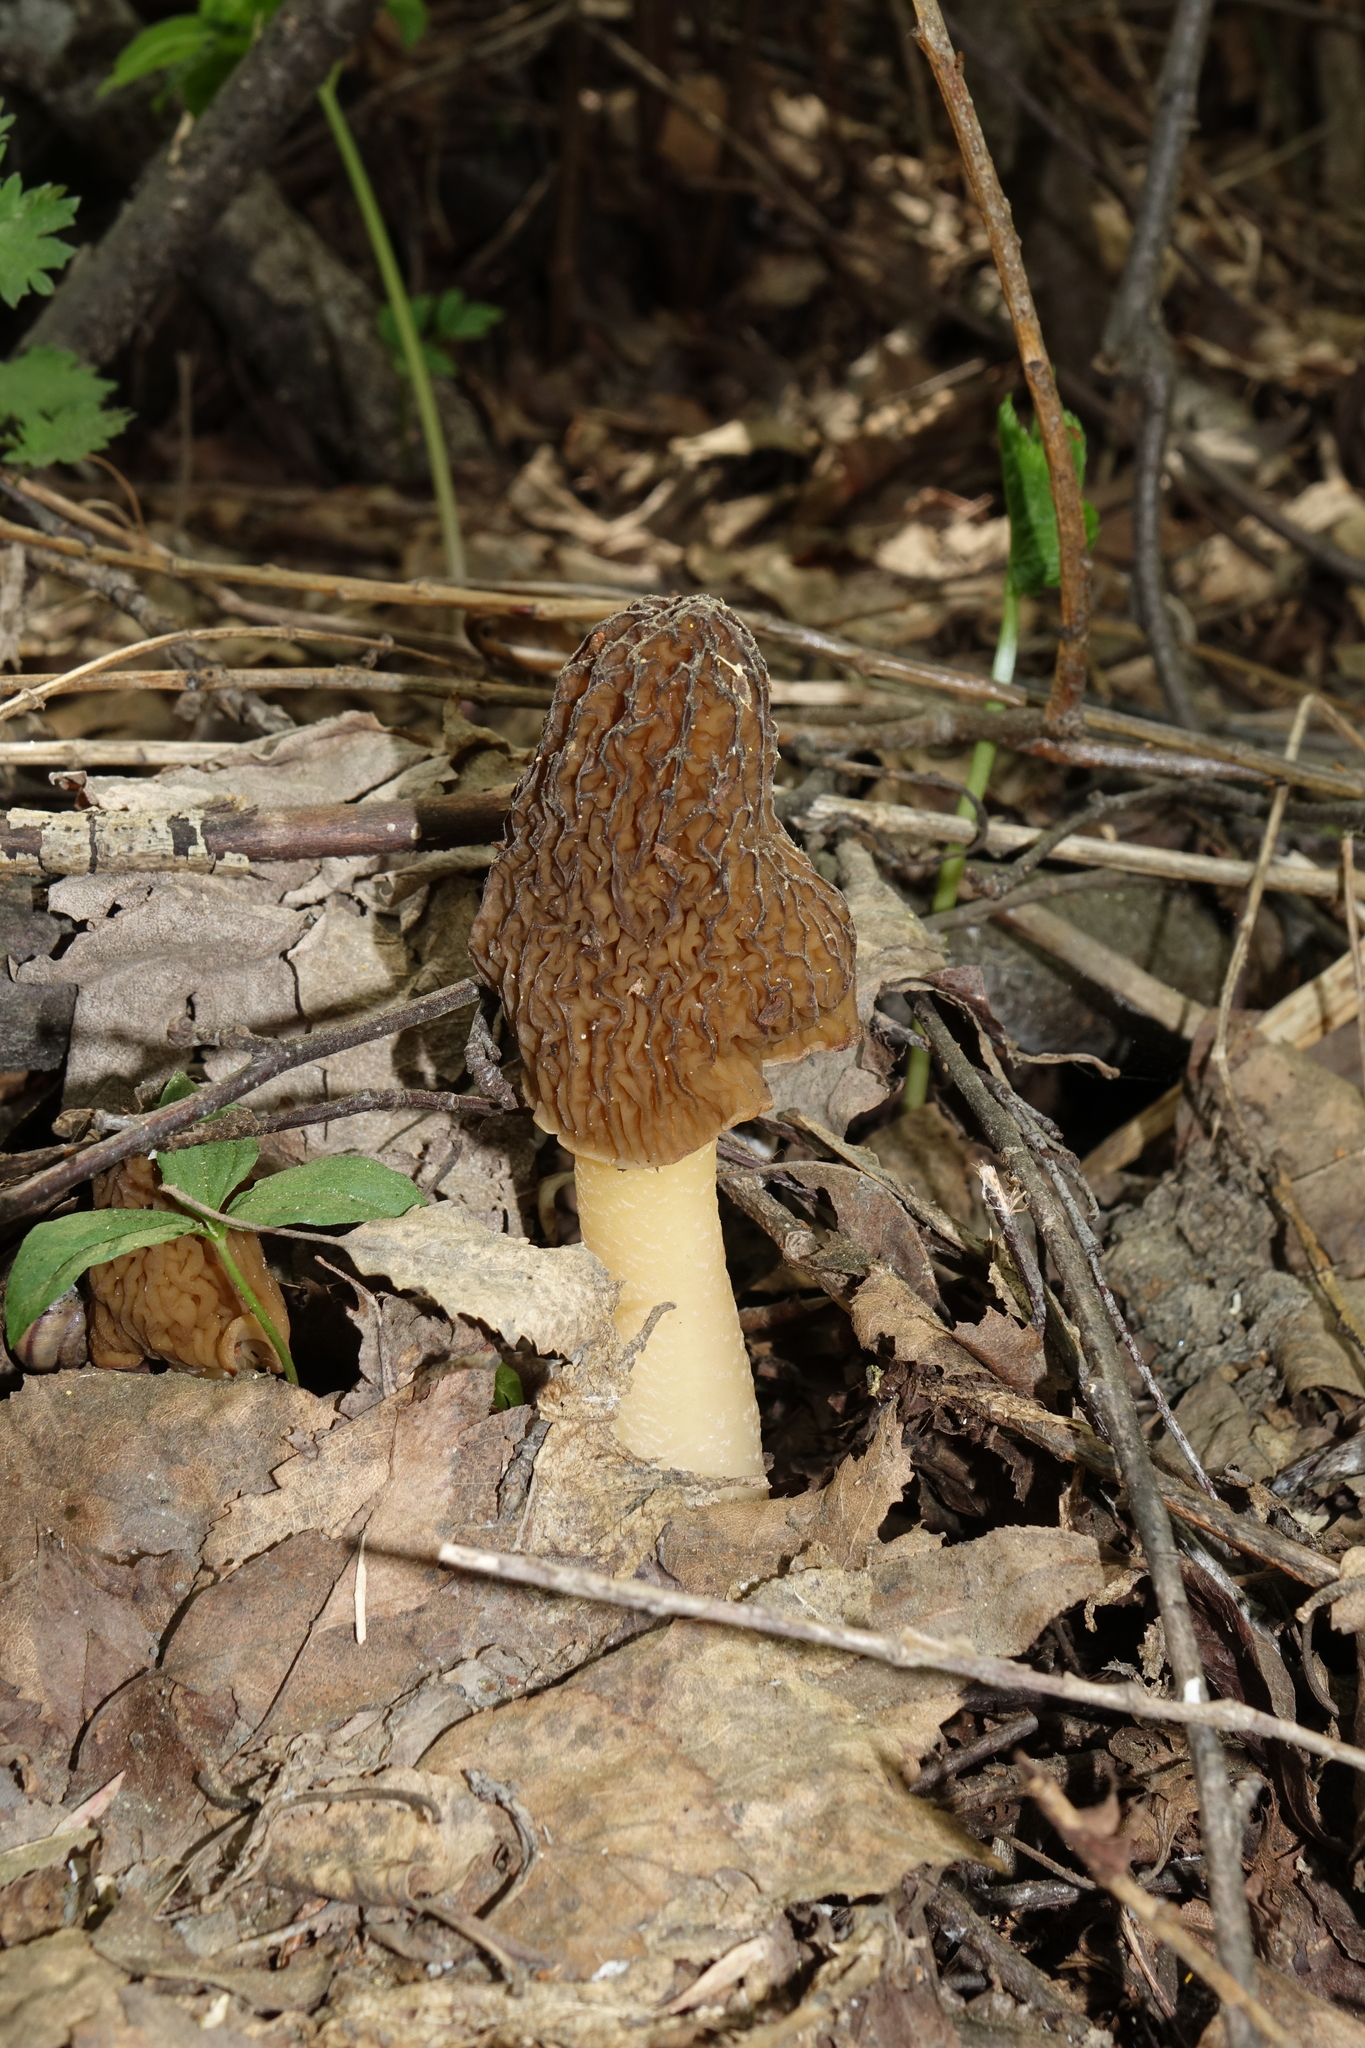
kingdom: Fungi
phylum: Ascomycota
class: Pezizomycetes
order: Pezizales
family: Morchellaceae
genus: Verpa
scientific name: Verpa bohemica
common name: Wrinkled thimble morel
